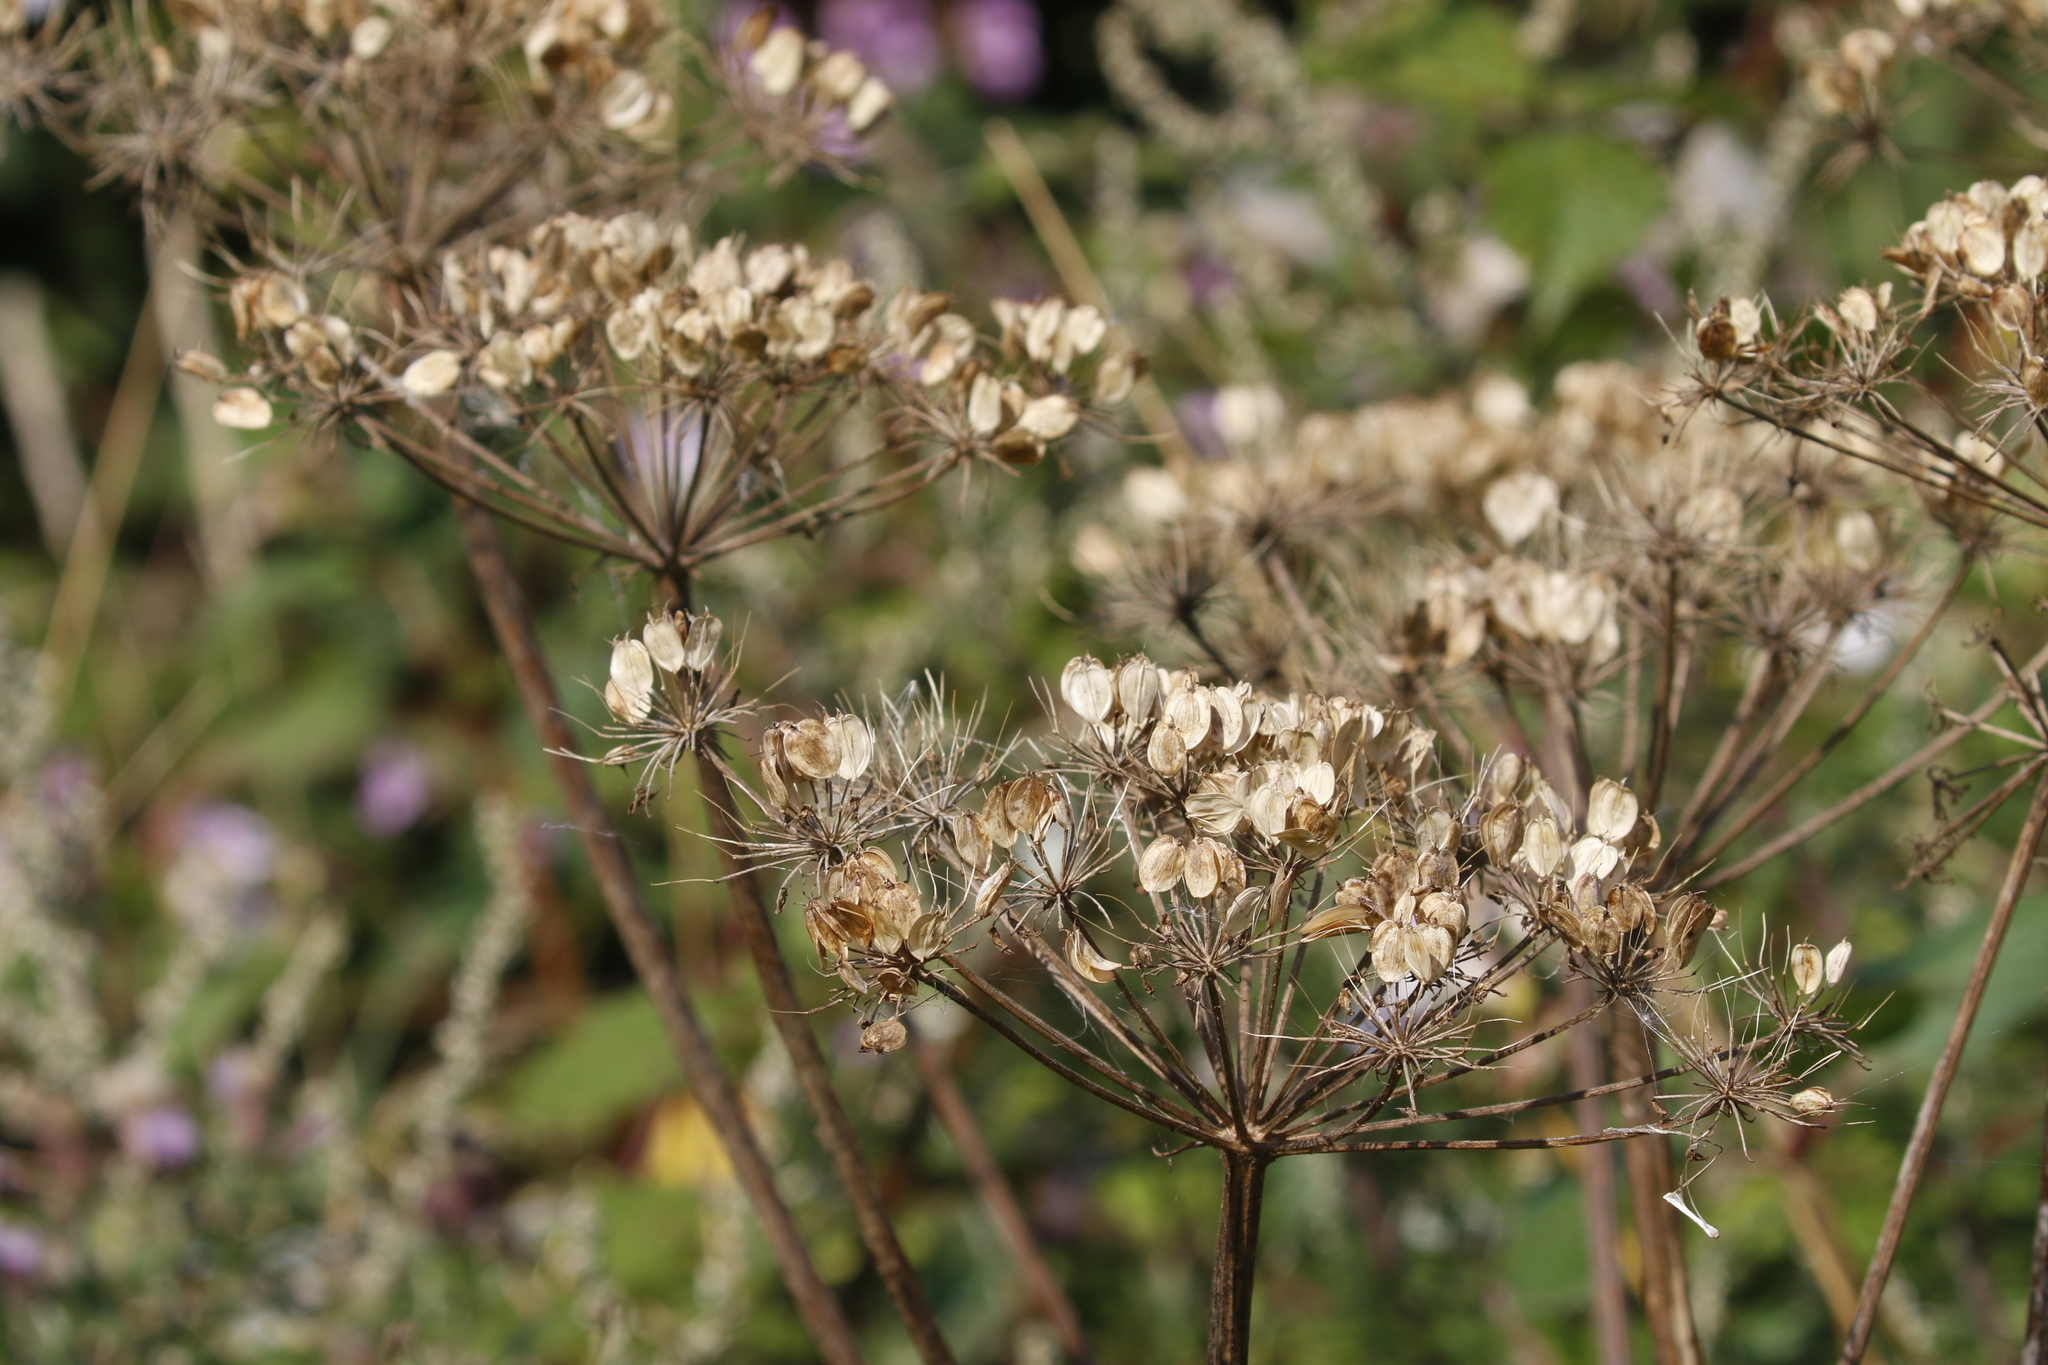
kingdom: Plantae
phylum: Tracheophyta
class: Magnoliopsida
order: Apiales
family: Apiaceae
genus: Heracleum
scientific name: Heracleum sphondylium
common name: Hogweed
